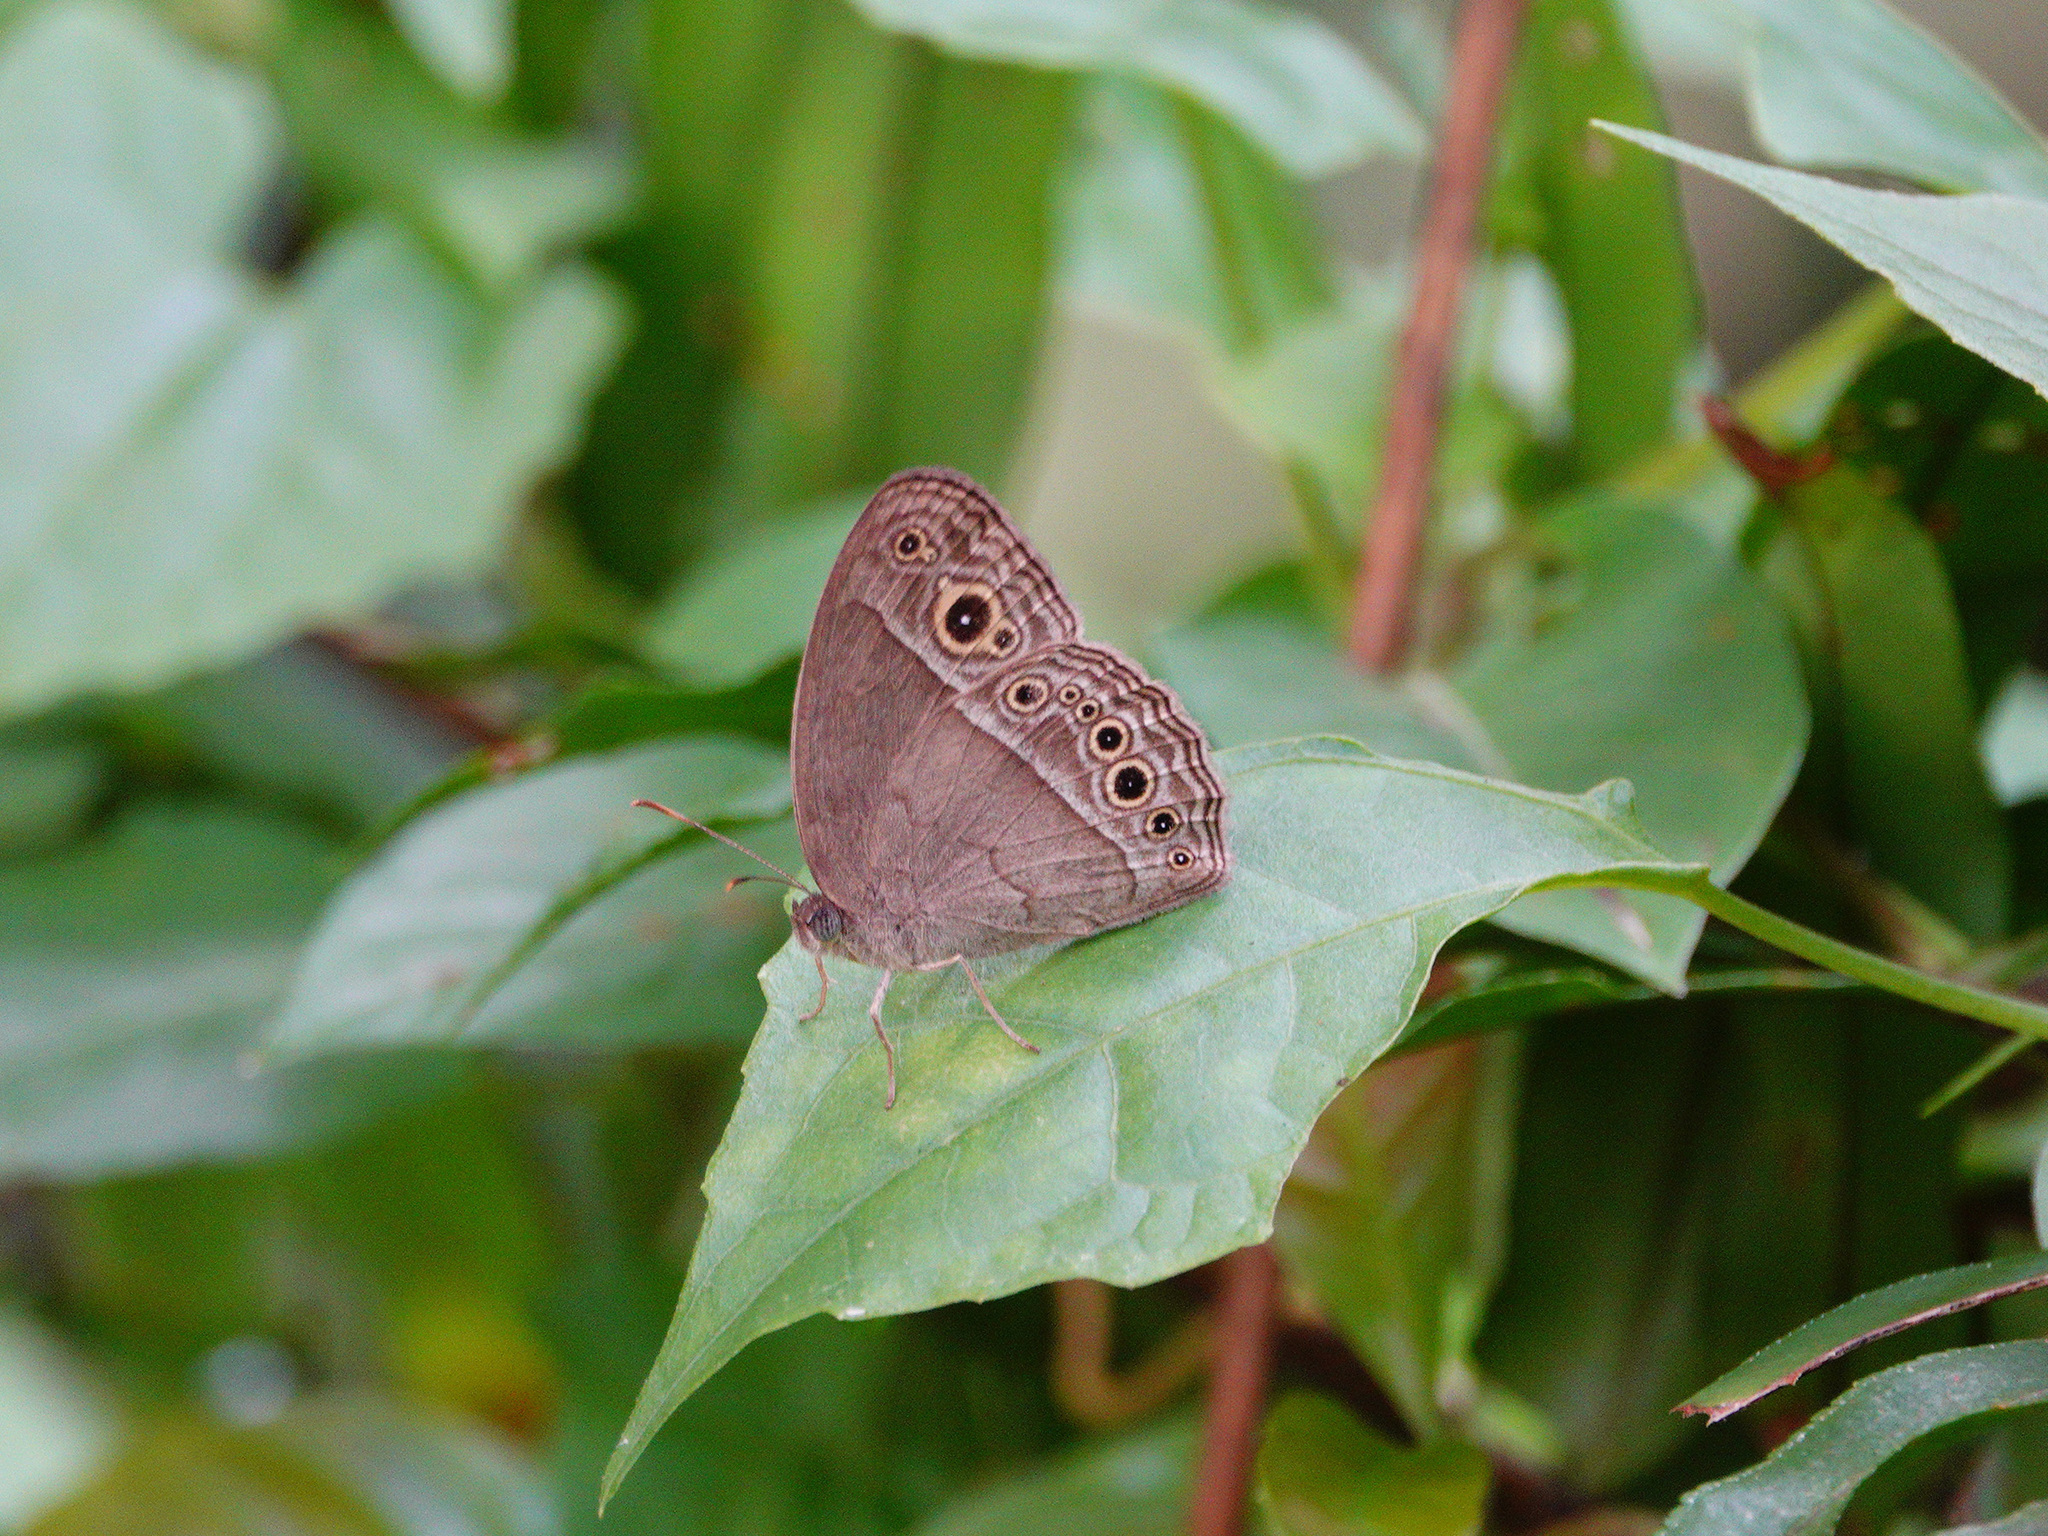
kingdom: Animalia
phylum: Arthropoda
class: Insecta
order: Lepidoptera
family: Nymphalidae
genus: Mycalesis
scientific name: Mycalesis perseoides
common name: Burmese bushbrown
